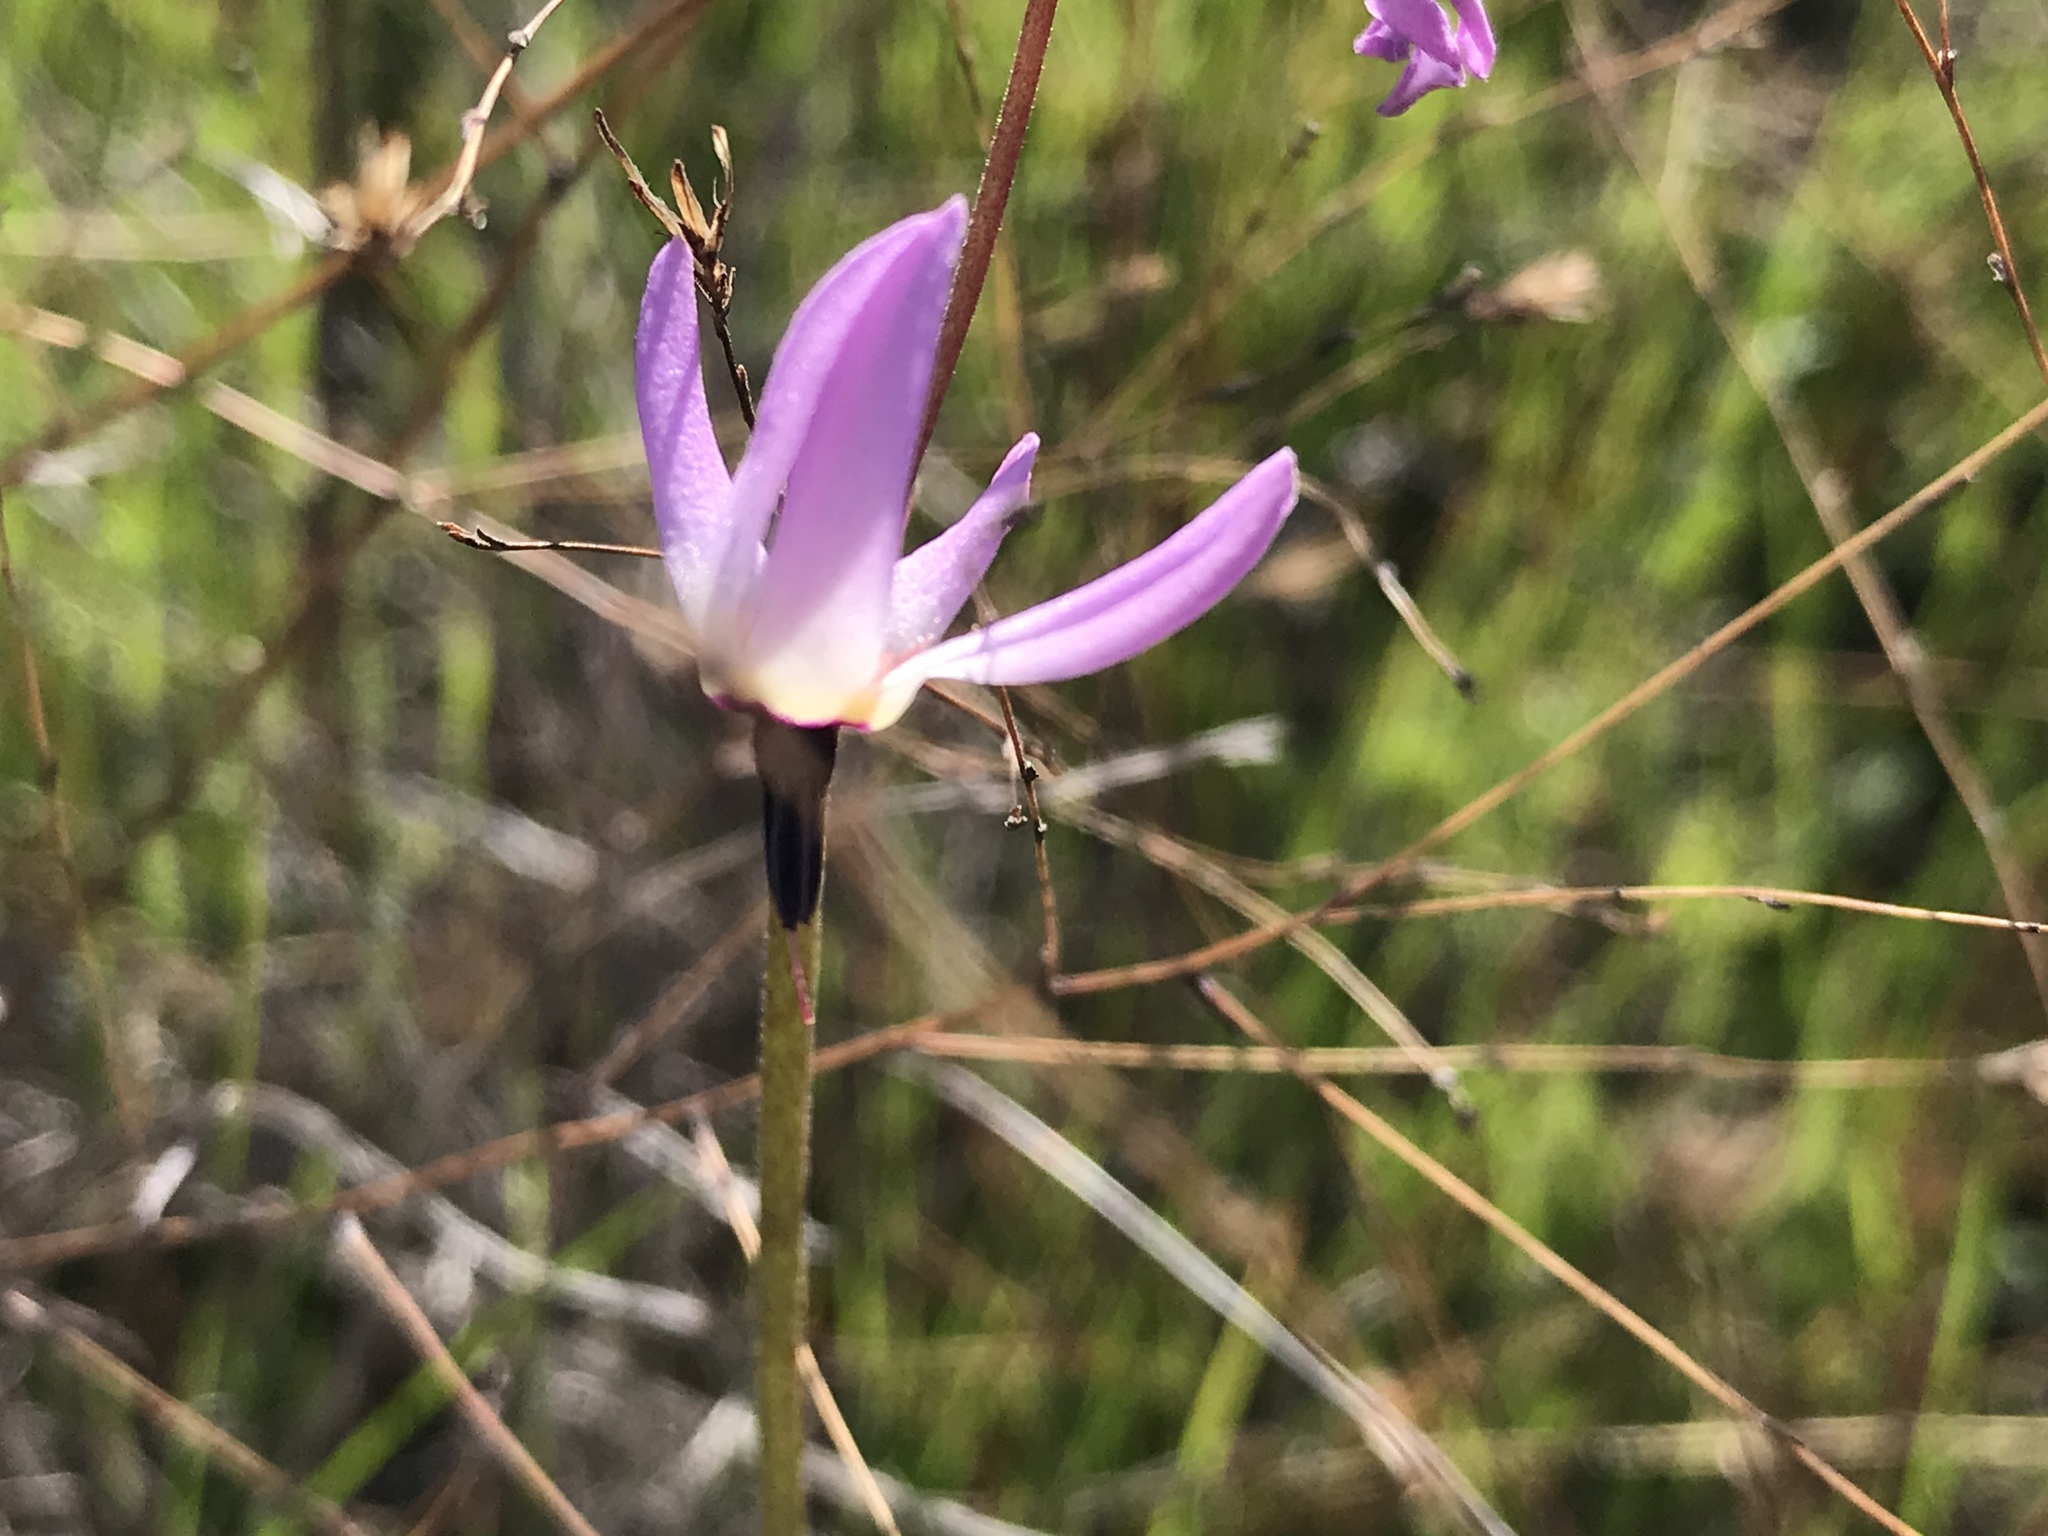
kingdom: Plantae
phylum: Tracheophyta
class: Magnoliopsida
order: Ericales
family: Primulaceae
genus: Dodecatheon
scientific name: Dodecatheon hendersonii
